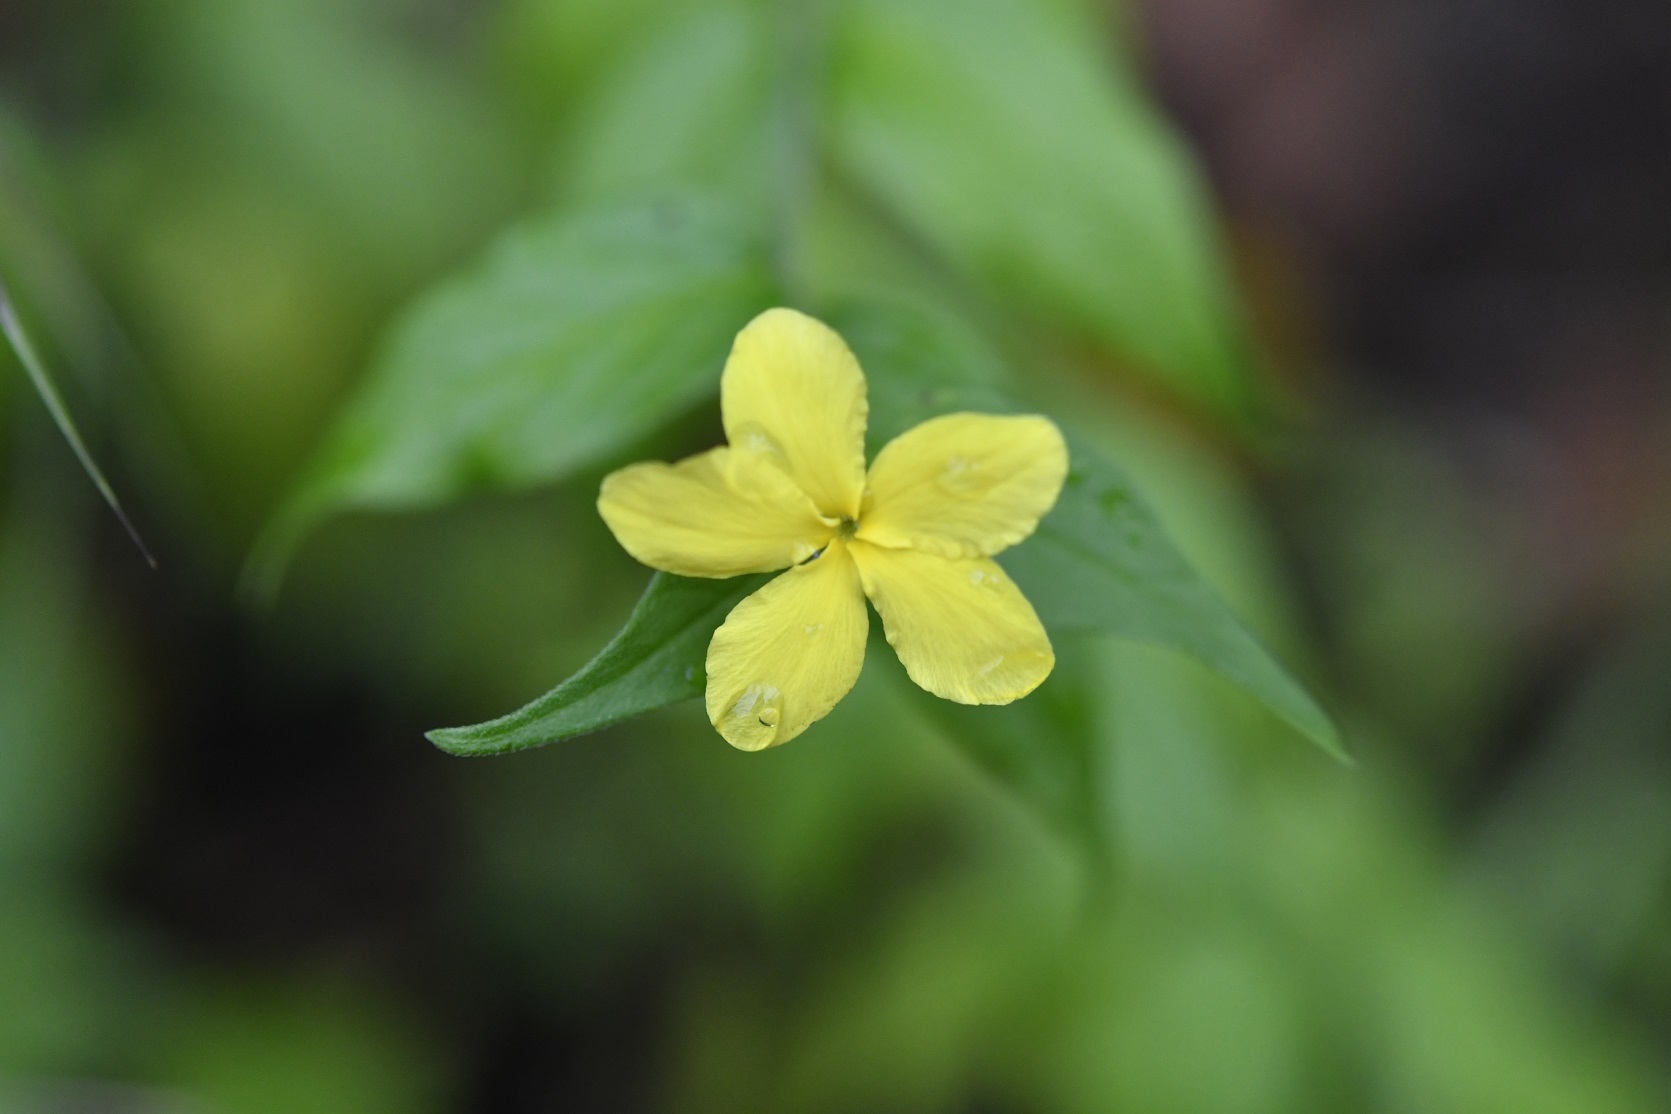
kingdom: Plantae
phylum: Tracheophyta
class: Magnoliopsida
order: Gentianales
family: Apocynaceae
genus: Haplophyton
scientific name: Haplophyton cimicidum
